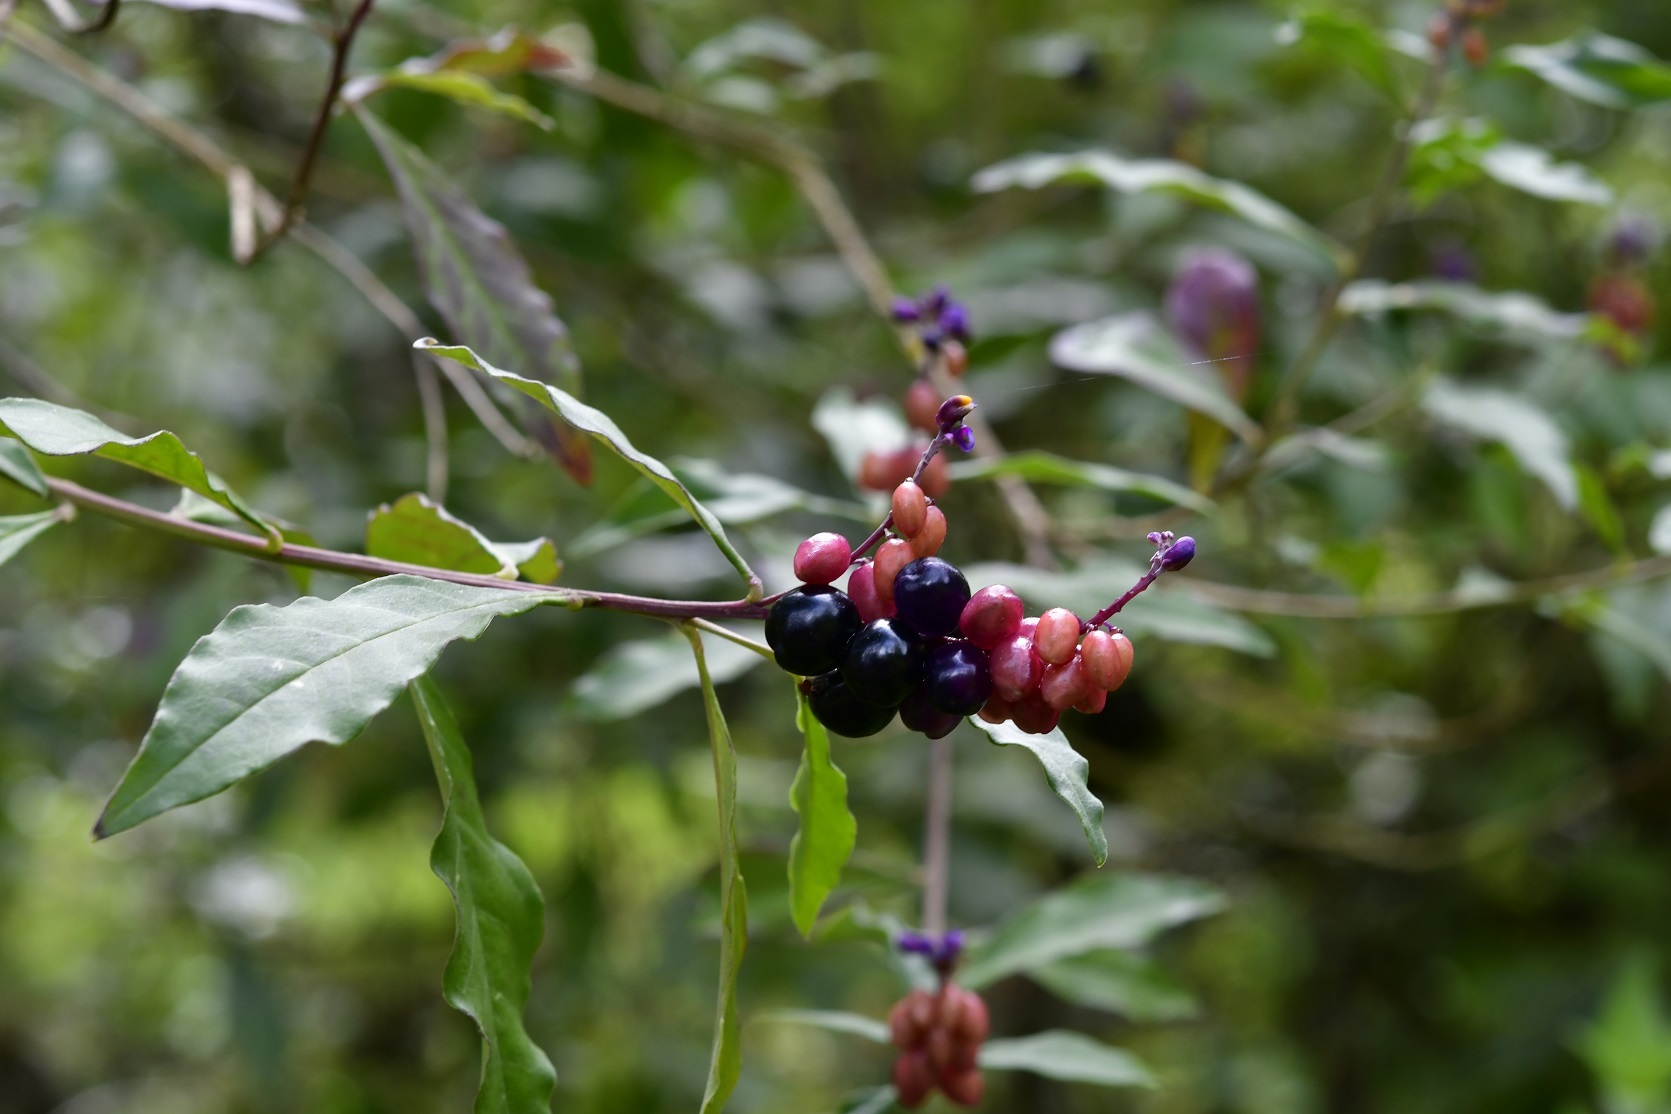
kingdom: Plantae
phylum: Tracheophyta
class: Magnoliopsida
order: Fabales
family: Polygalaceae
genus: Monnina
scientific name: Monnina xalapensis
